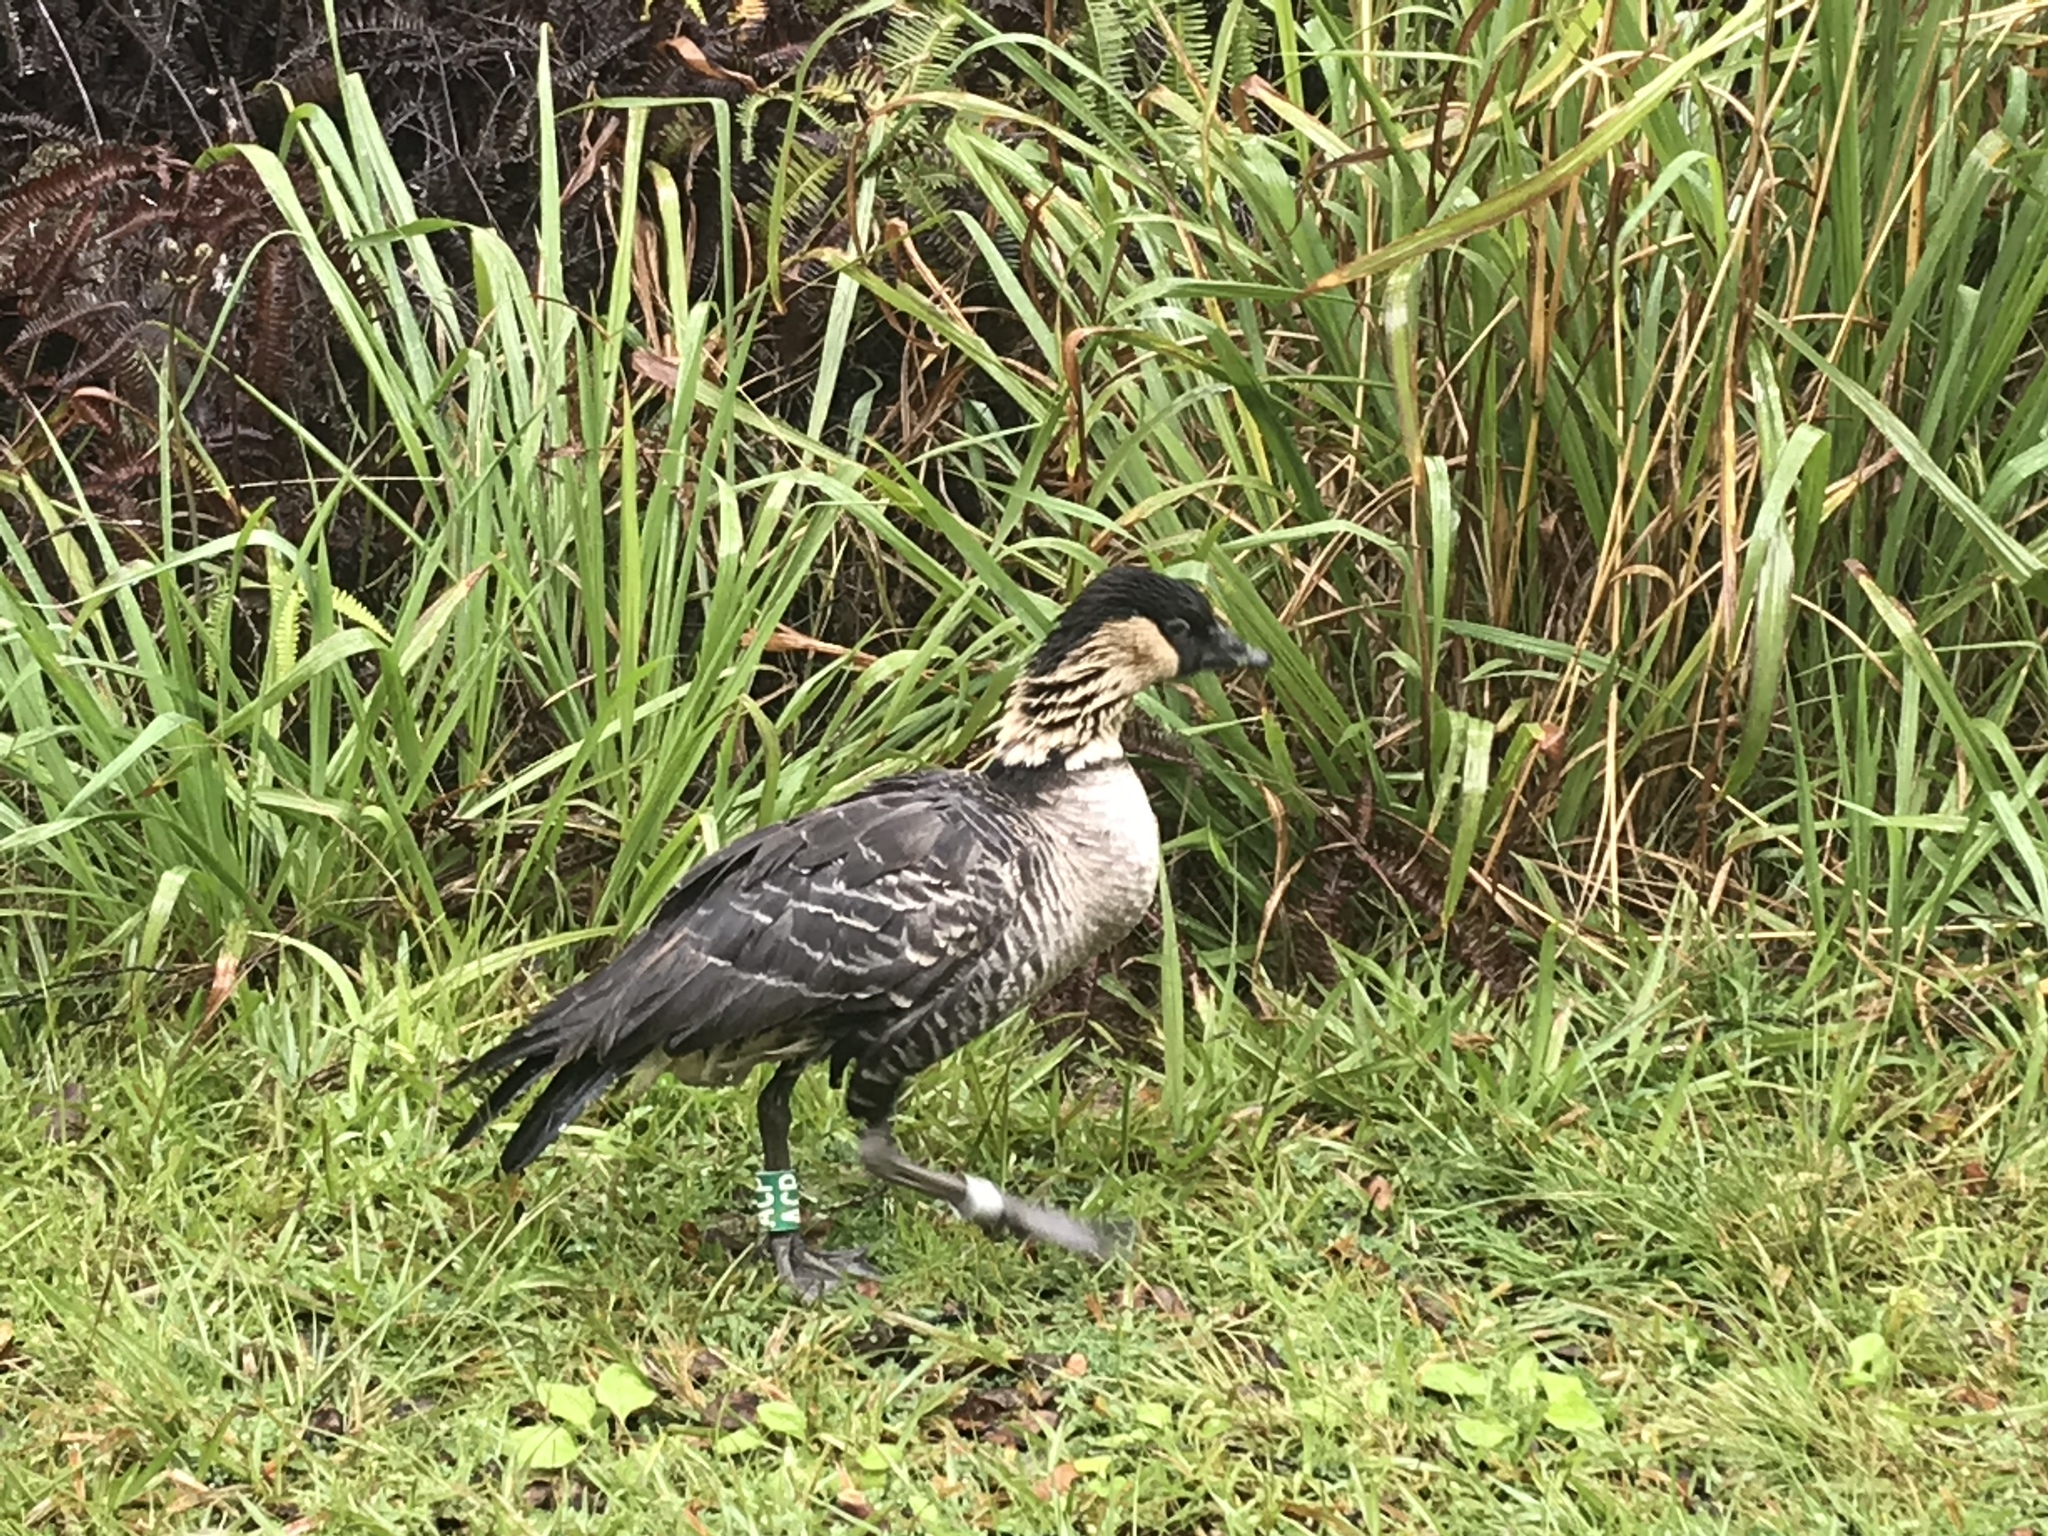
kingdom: Animalia
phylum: Chordata
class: Aves
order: Anseriformes
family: Anatidae
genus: Branta
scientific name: Branta sandvicensis
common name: Nene
